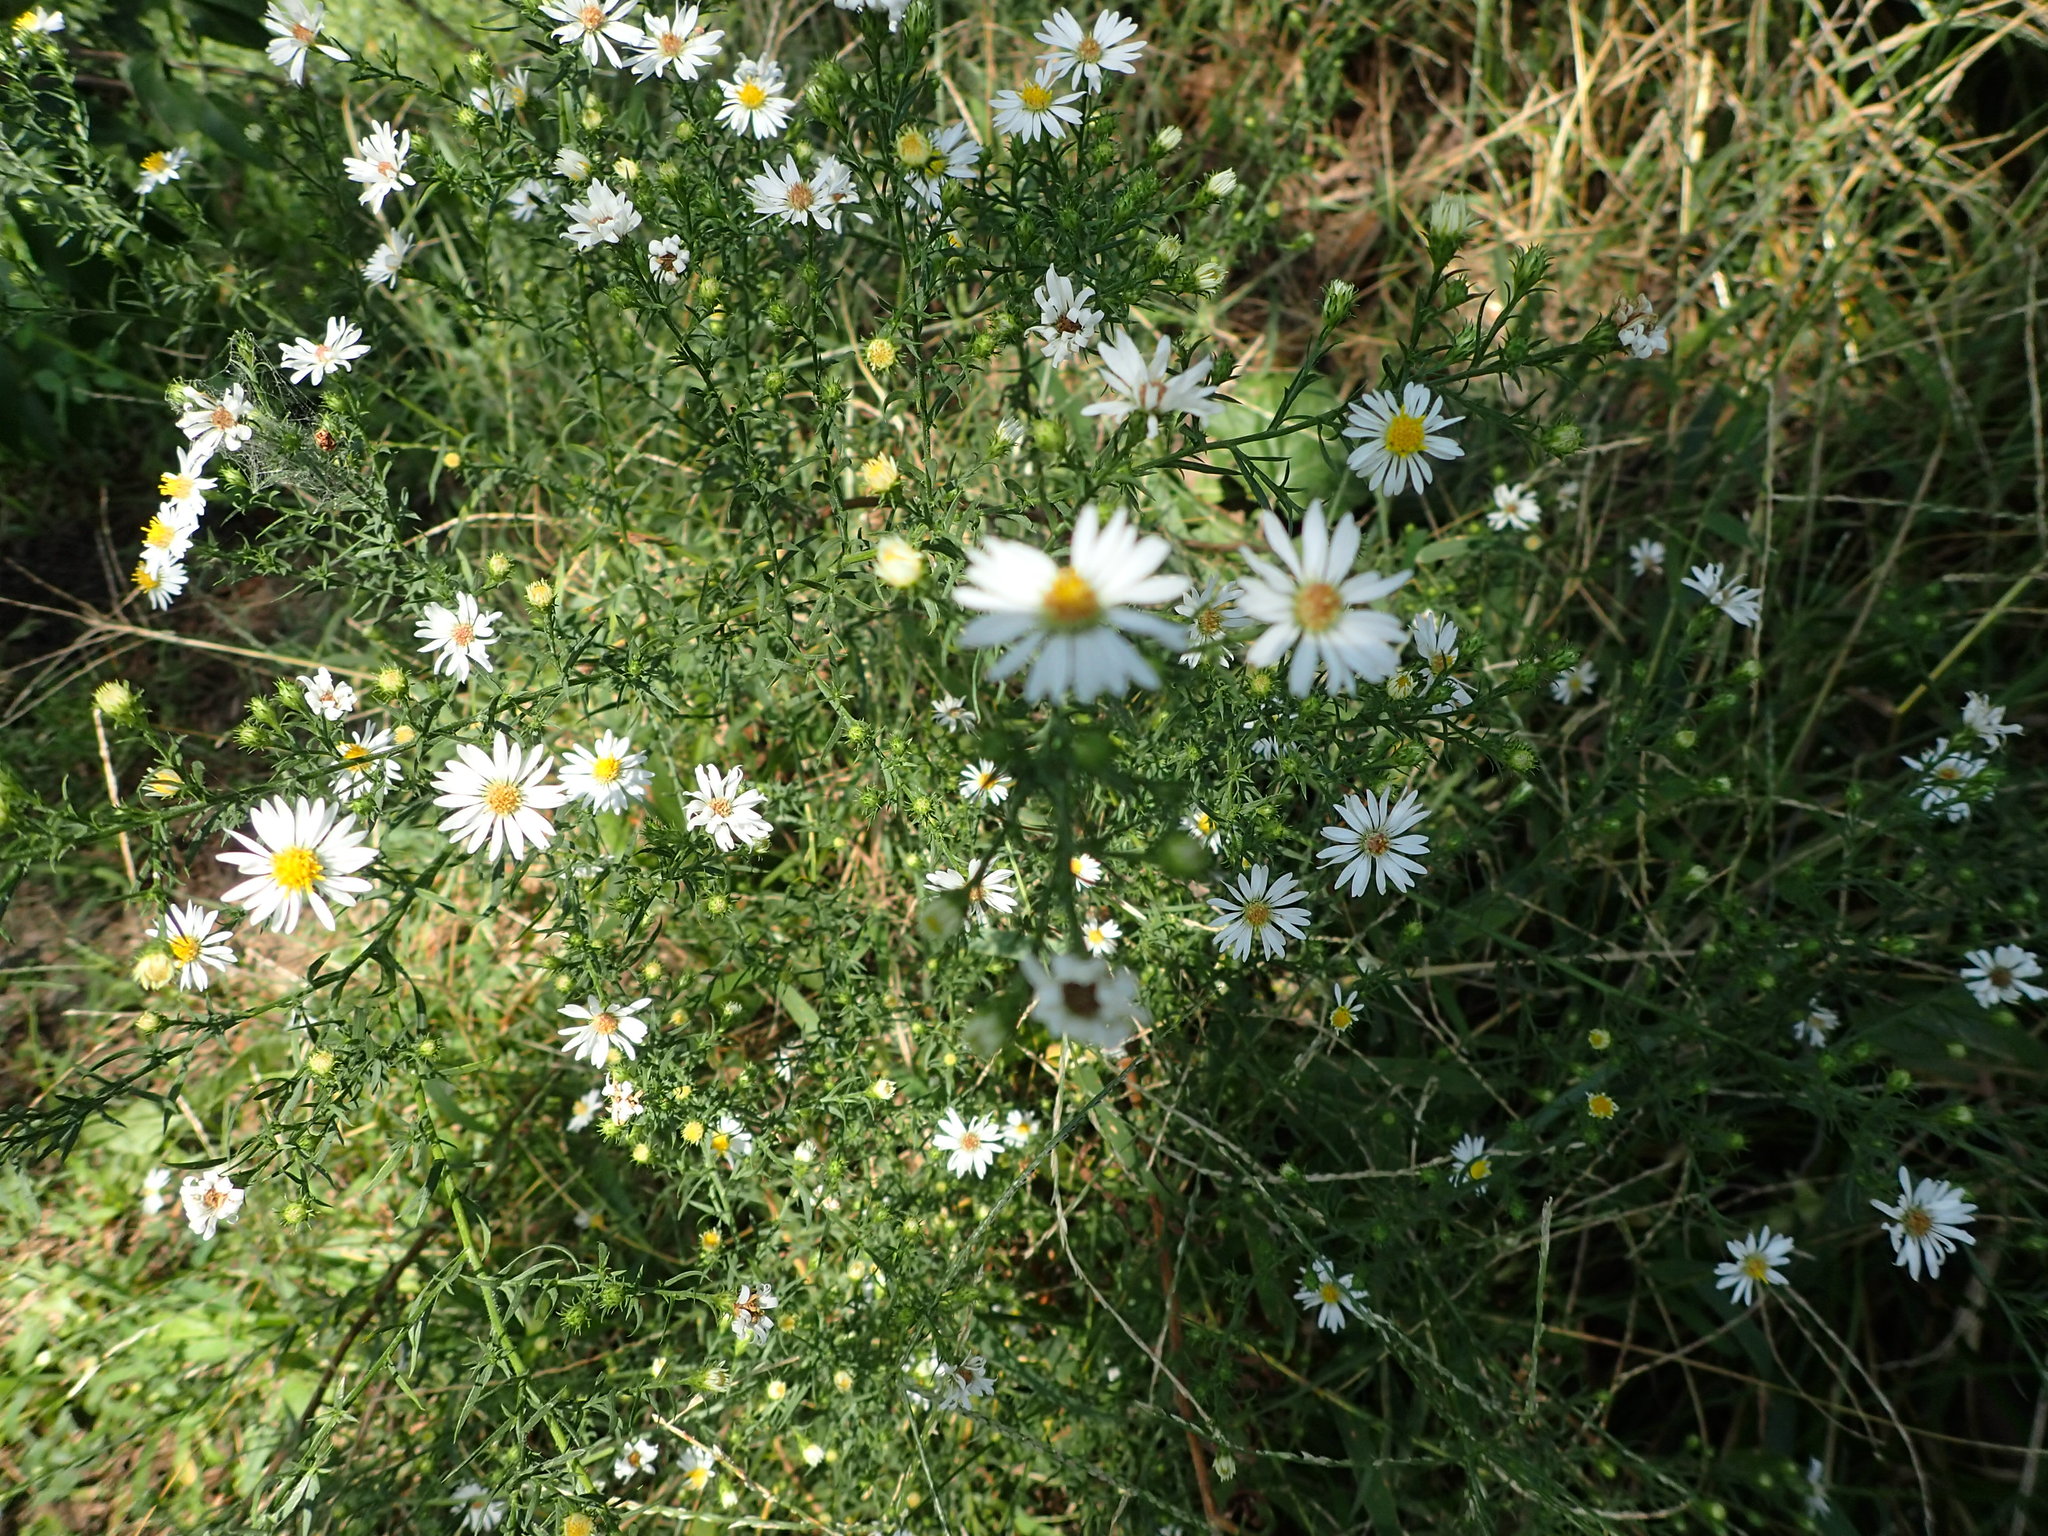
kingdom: Plantae
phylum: Tracheophyta
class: Magnoliopsida
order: Asterales
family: Asteraceae
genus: Symphyotrichum
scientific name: Symphyotrichum pilosum
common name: Awl aster
